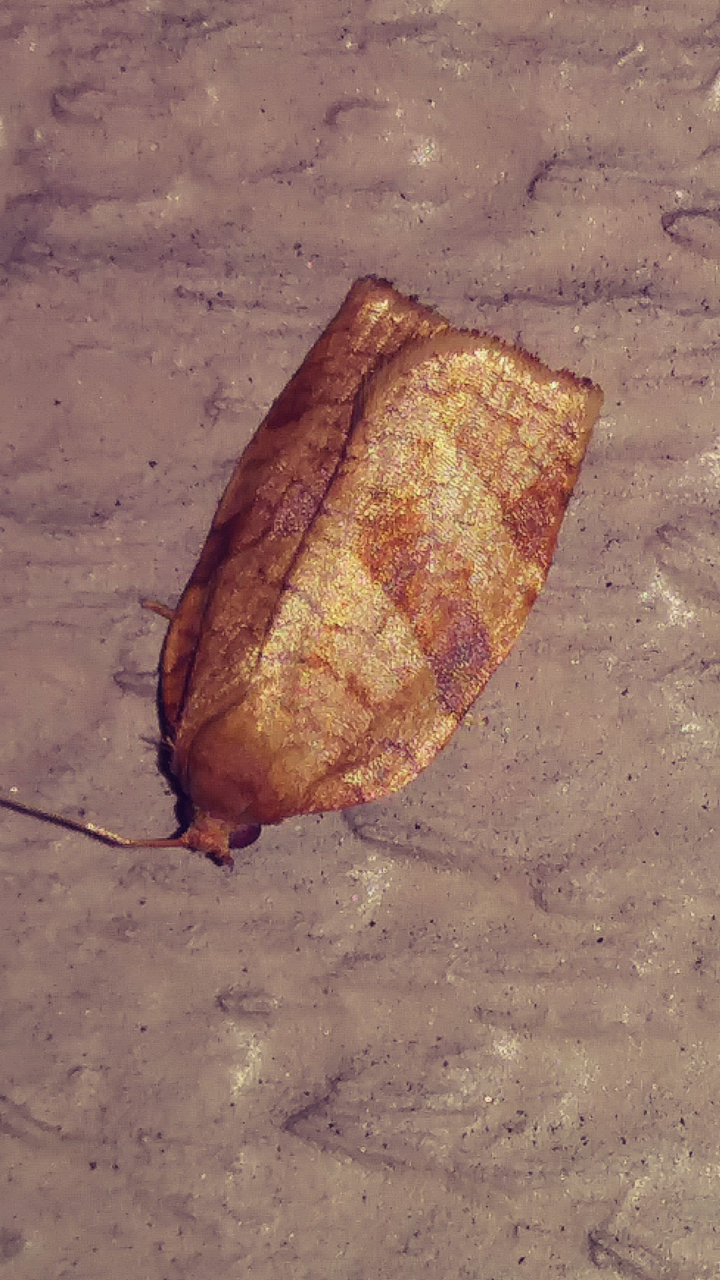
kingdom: Animalia
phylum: Arthropoda
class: Insecta
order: Lepidoptera
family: Tortricidae
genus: Choristoneura
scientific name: Choristoneura rosaceana
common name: Oblique-banded leafroller moth
